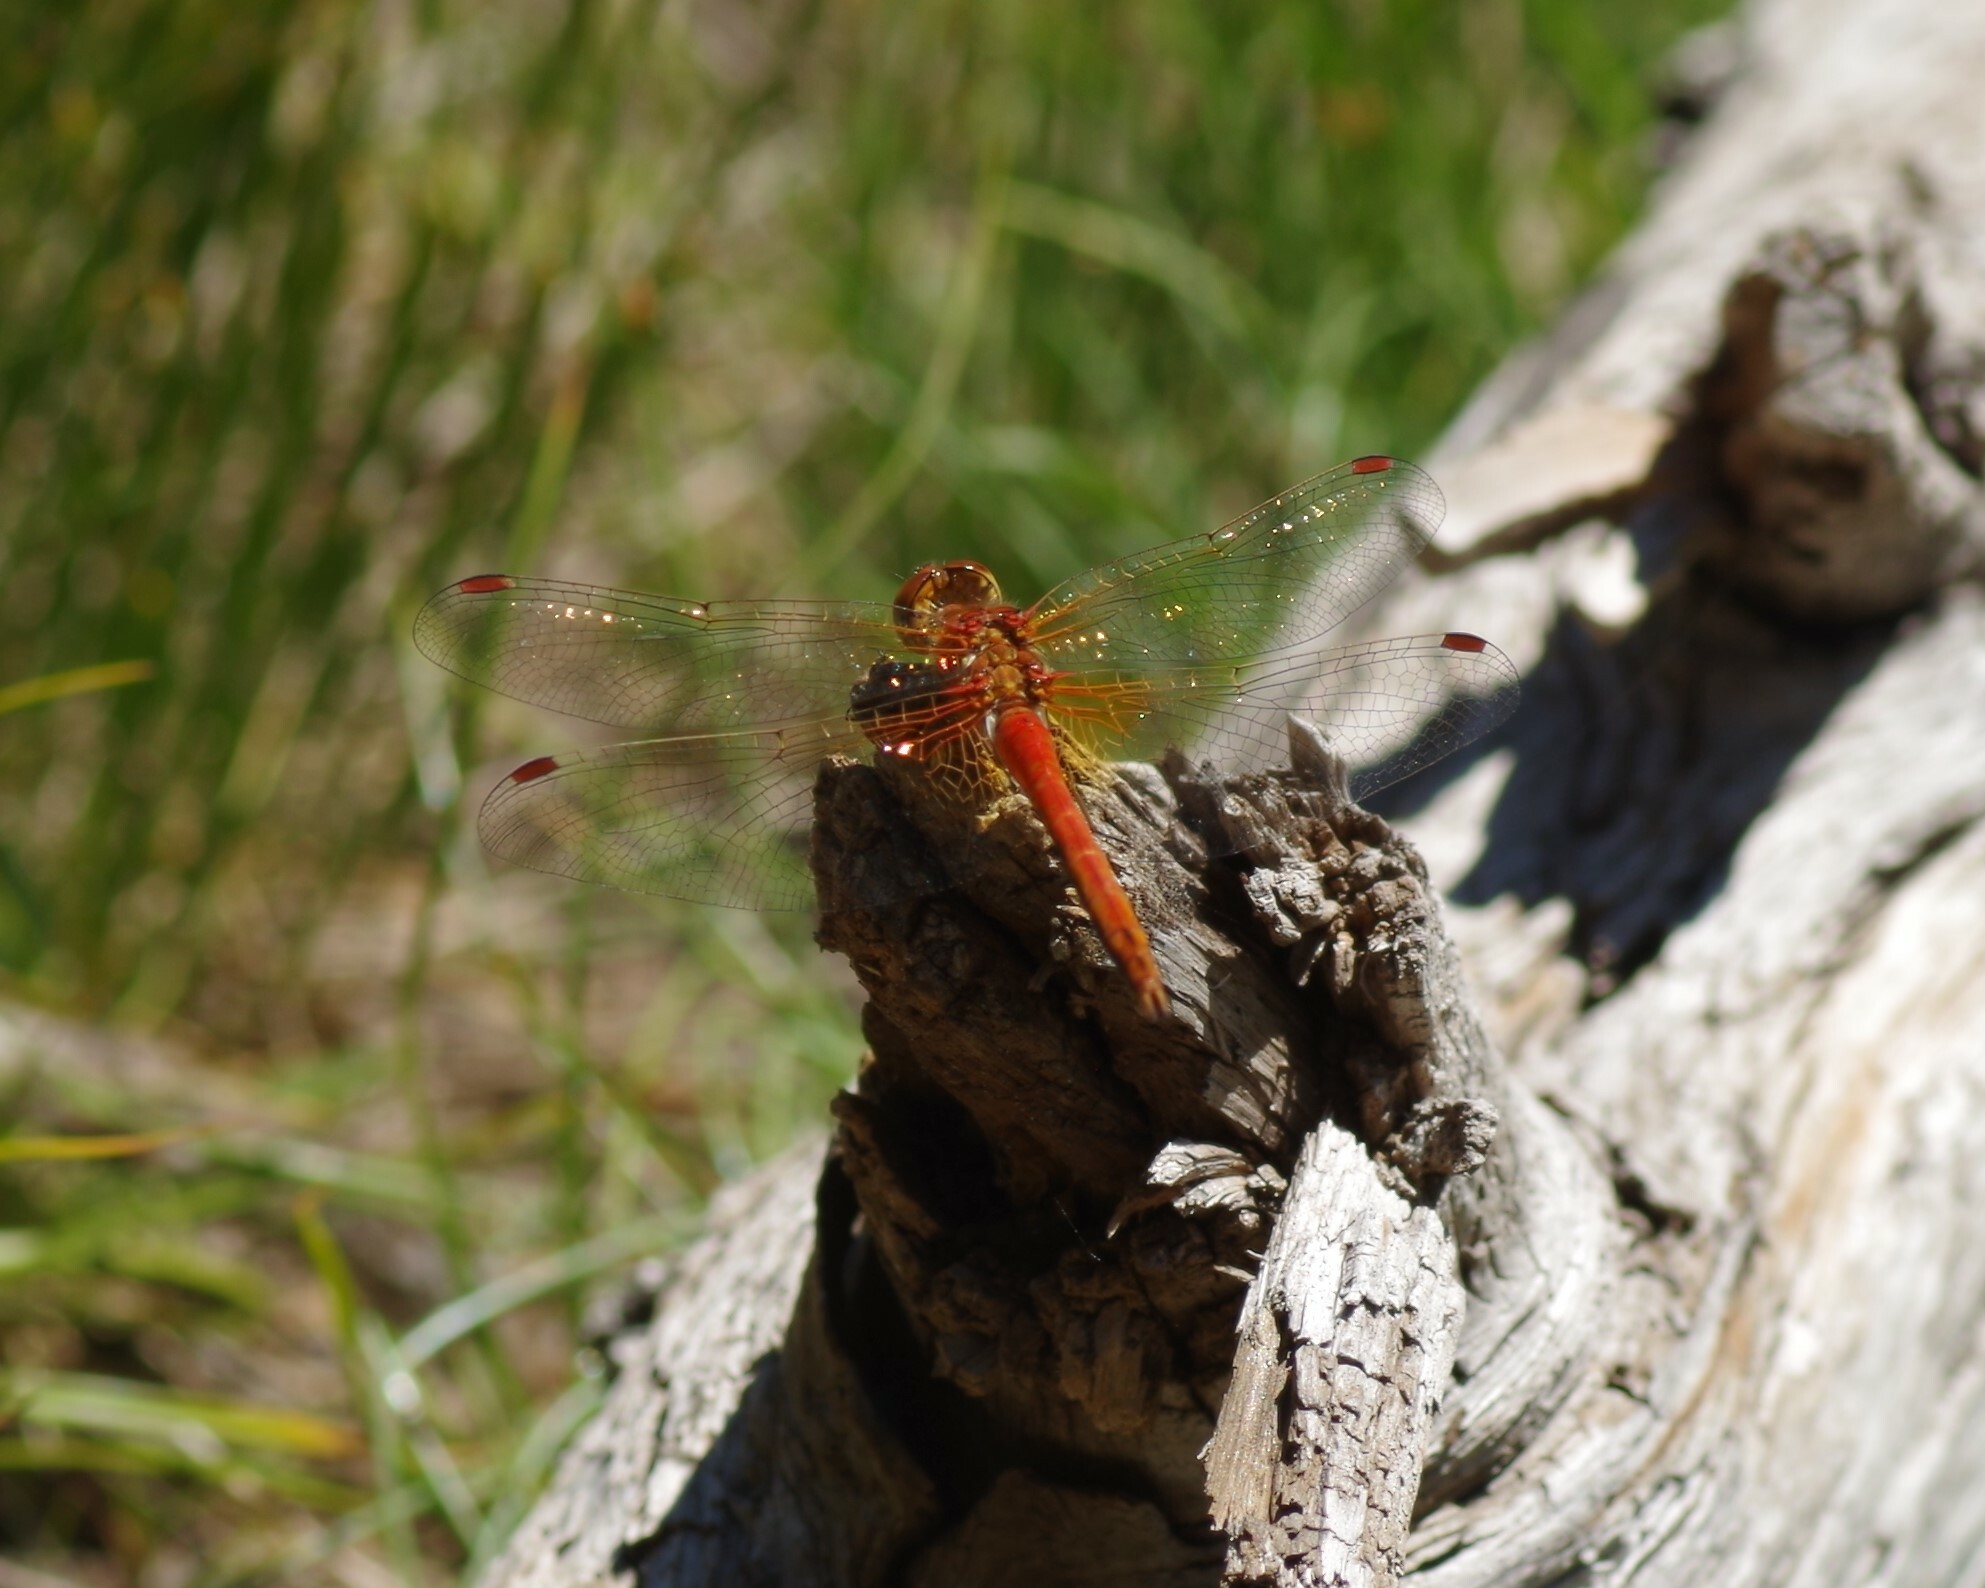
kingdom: Animalia
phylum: Arthropoda
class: Insecta
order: Odonata
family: Libellulidae
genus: Sympetrum
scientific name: Sympetrum flaveolum
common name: Yellow-winged darter
